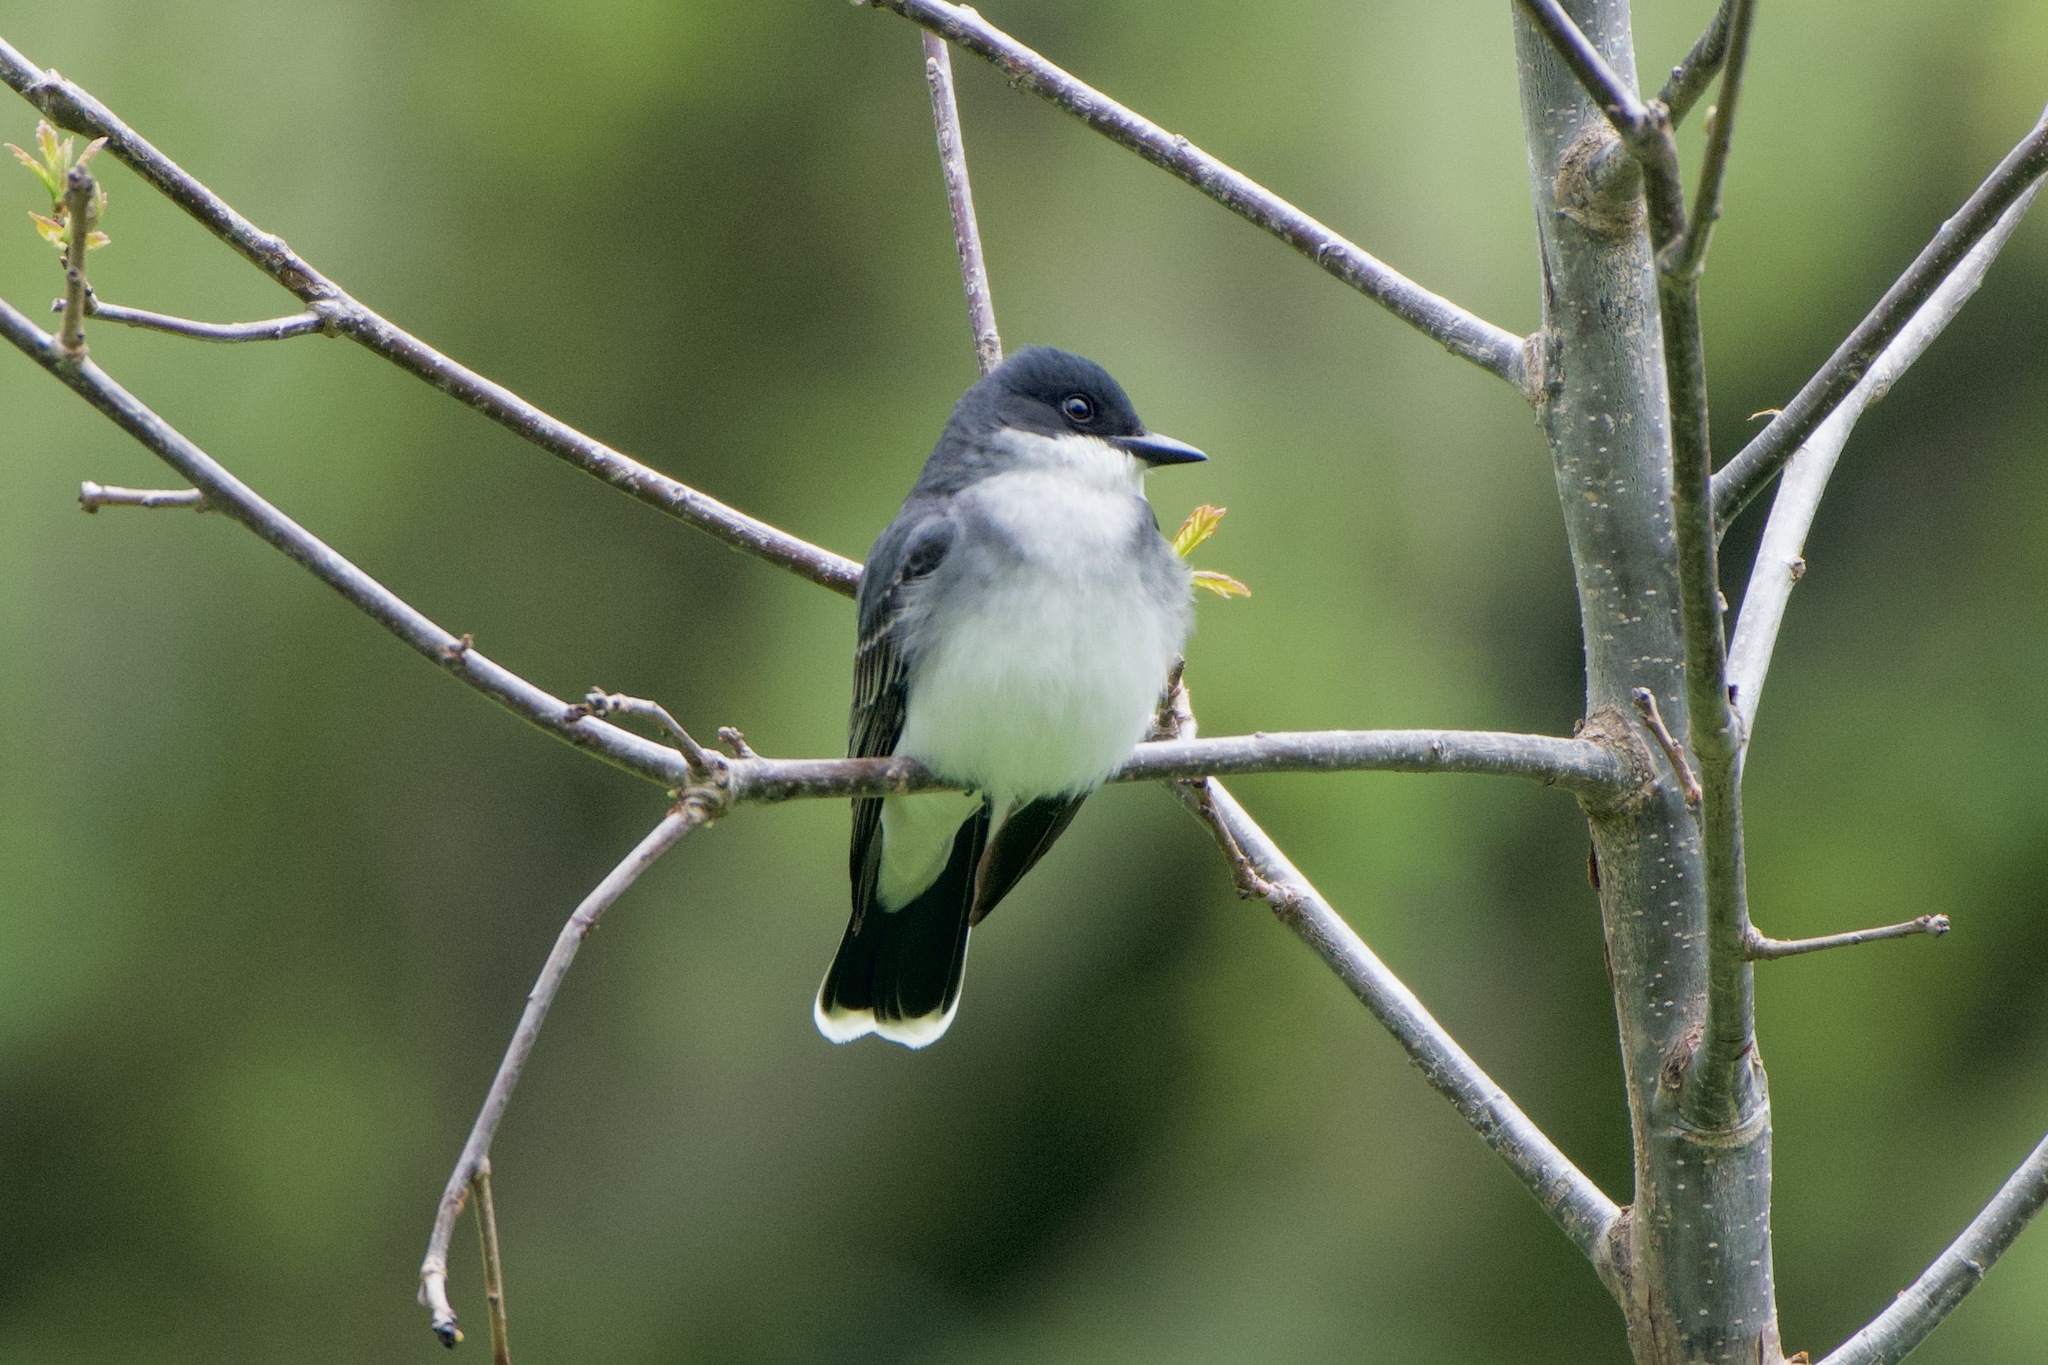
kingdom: Animalia
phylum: Chordata
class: Aves
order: Passeriformes
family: Tyrannidae
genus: Tyrannus
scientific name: Tyrannus tyrannus
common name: Eastern kingbird
